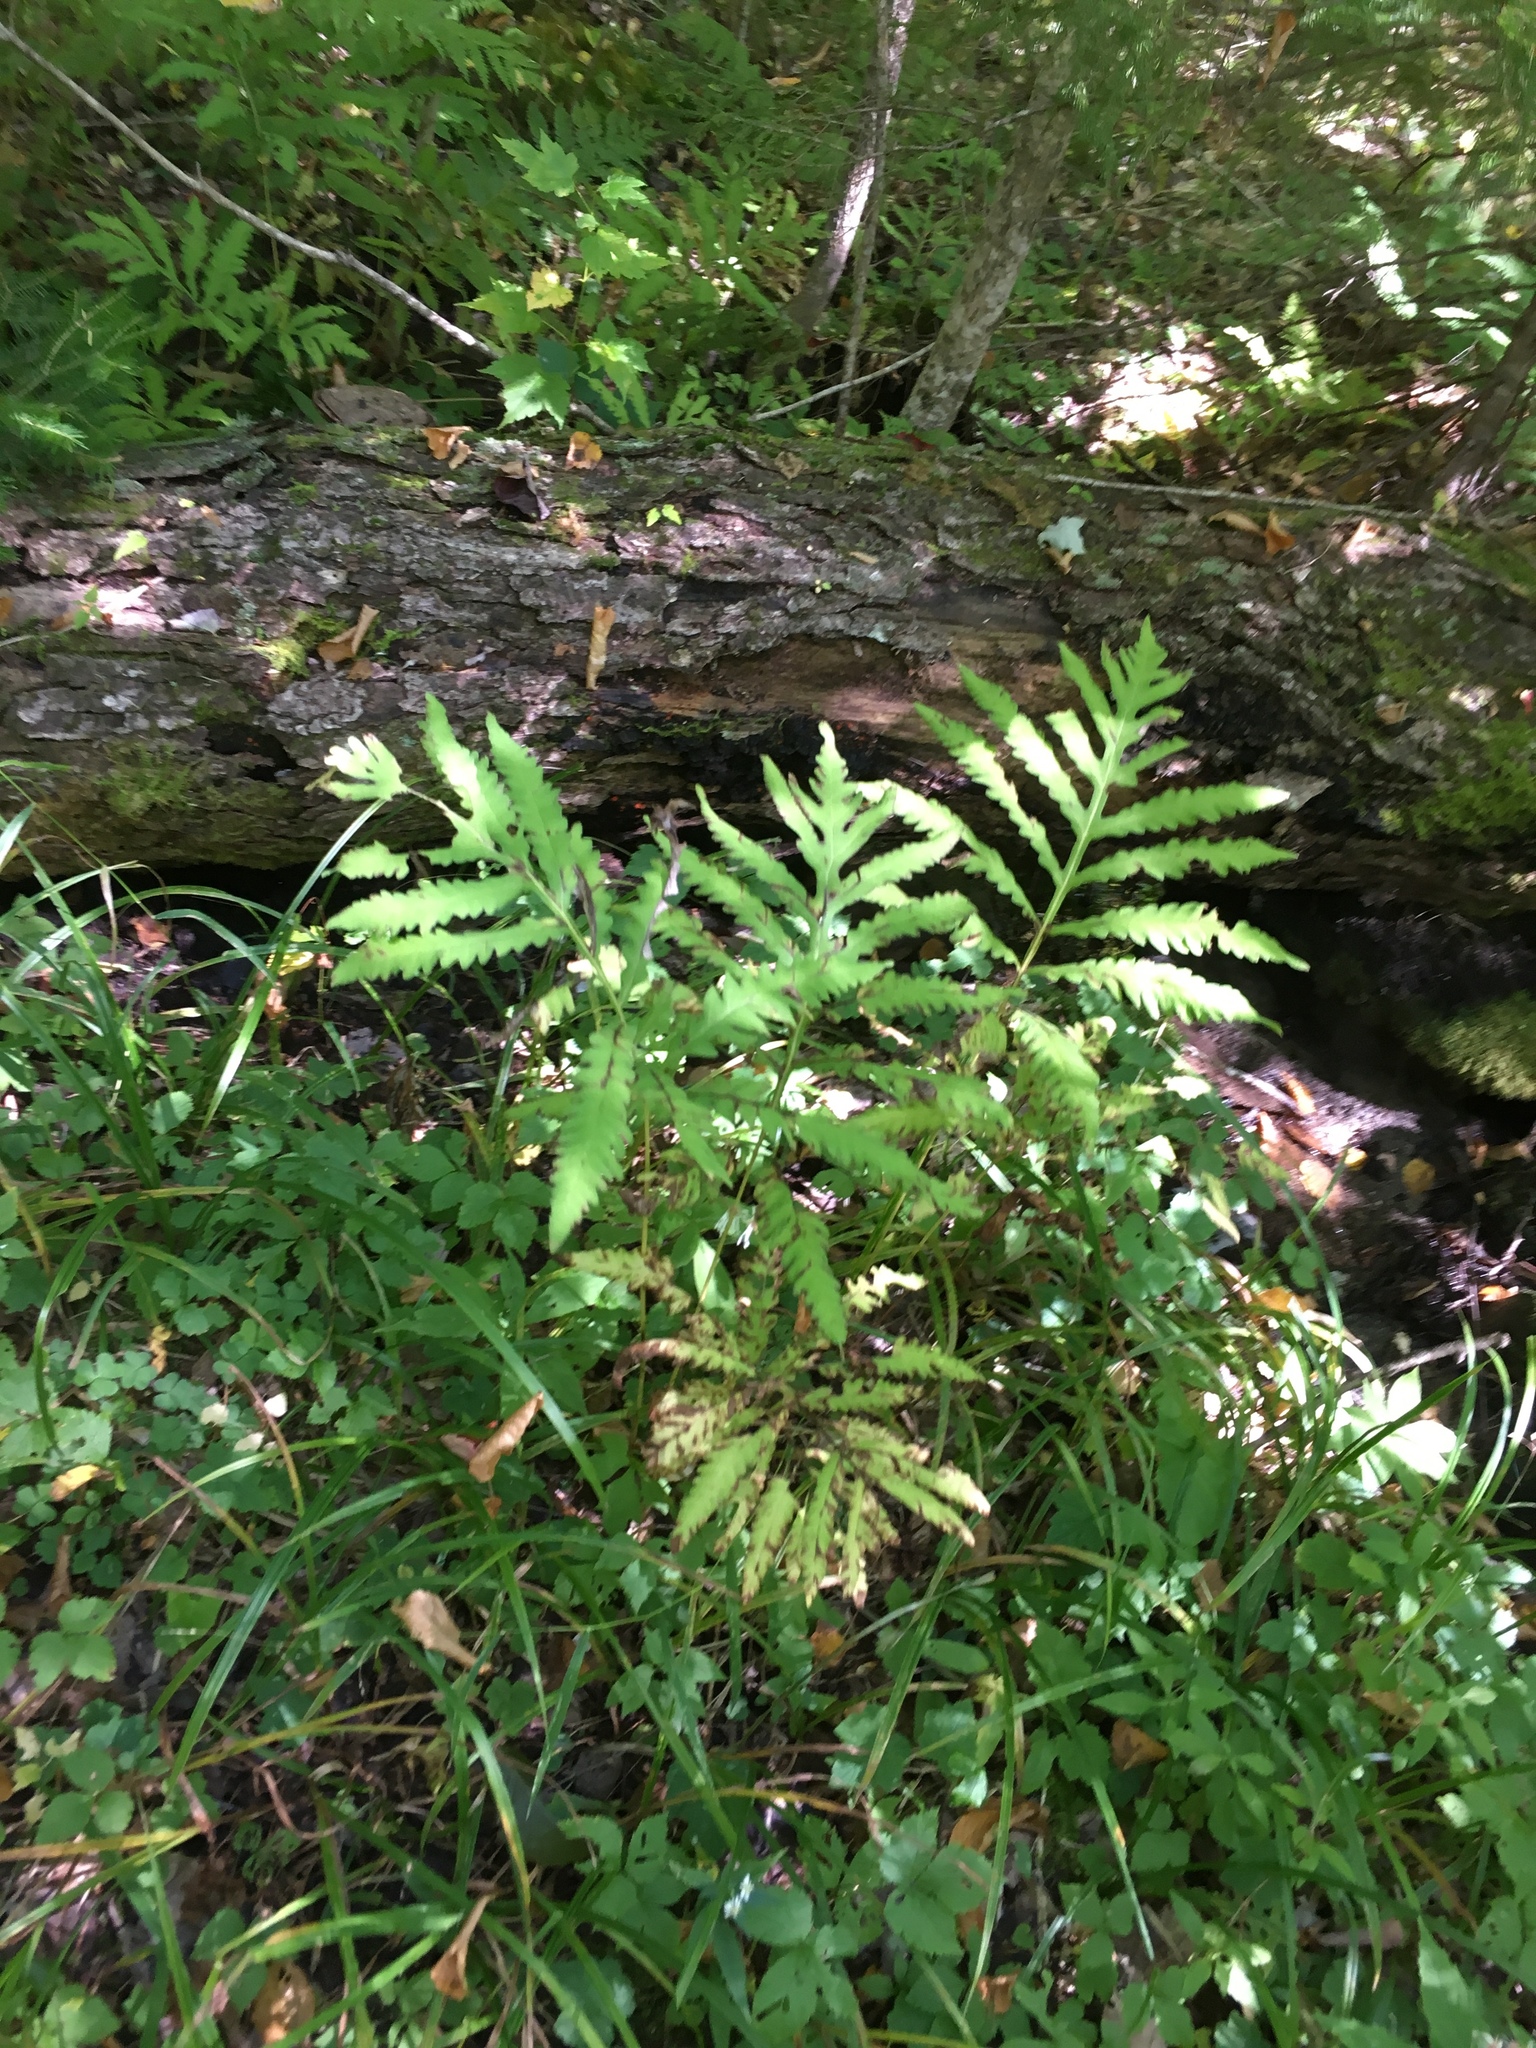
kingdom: Plantae
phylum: Tracheophyta
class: Polypodiopsida
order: Polypodiales
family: Onocleaceae
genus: Onoclea
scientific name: Onoclea sensibilis
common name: Sensitive fern
